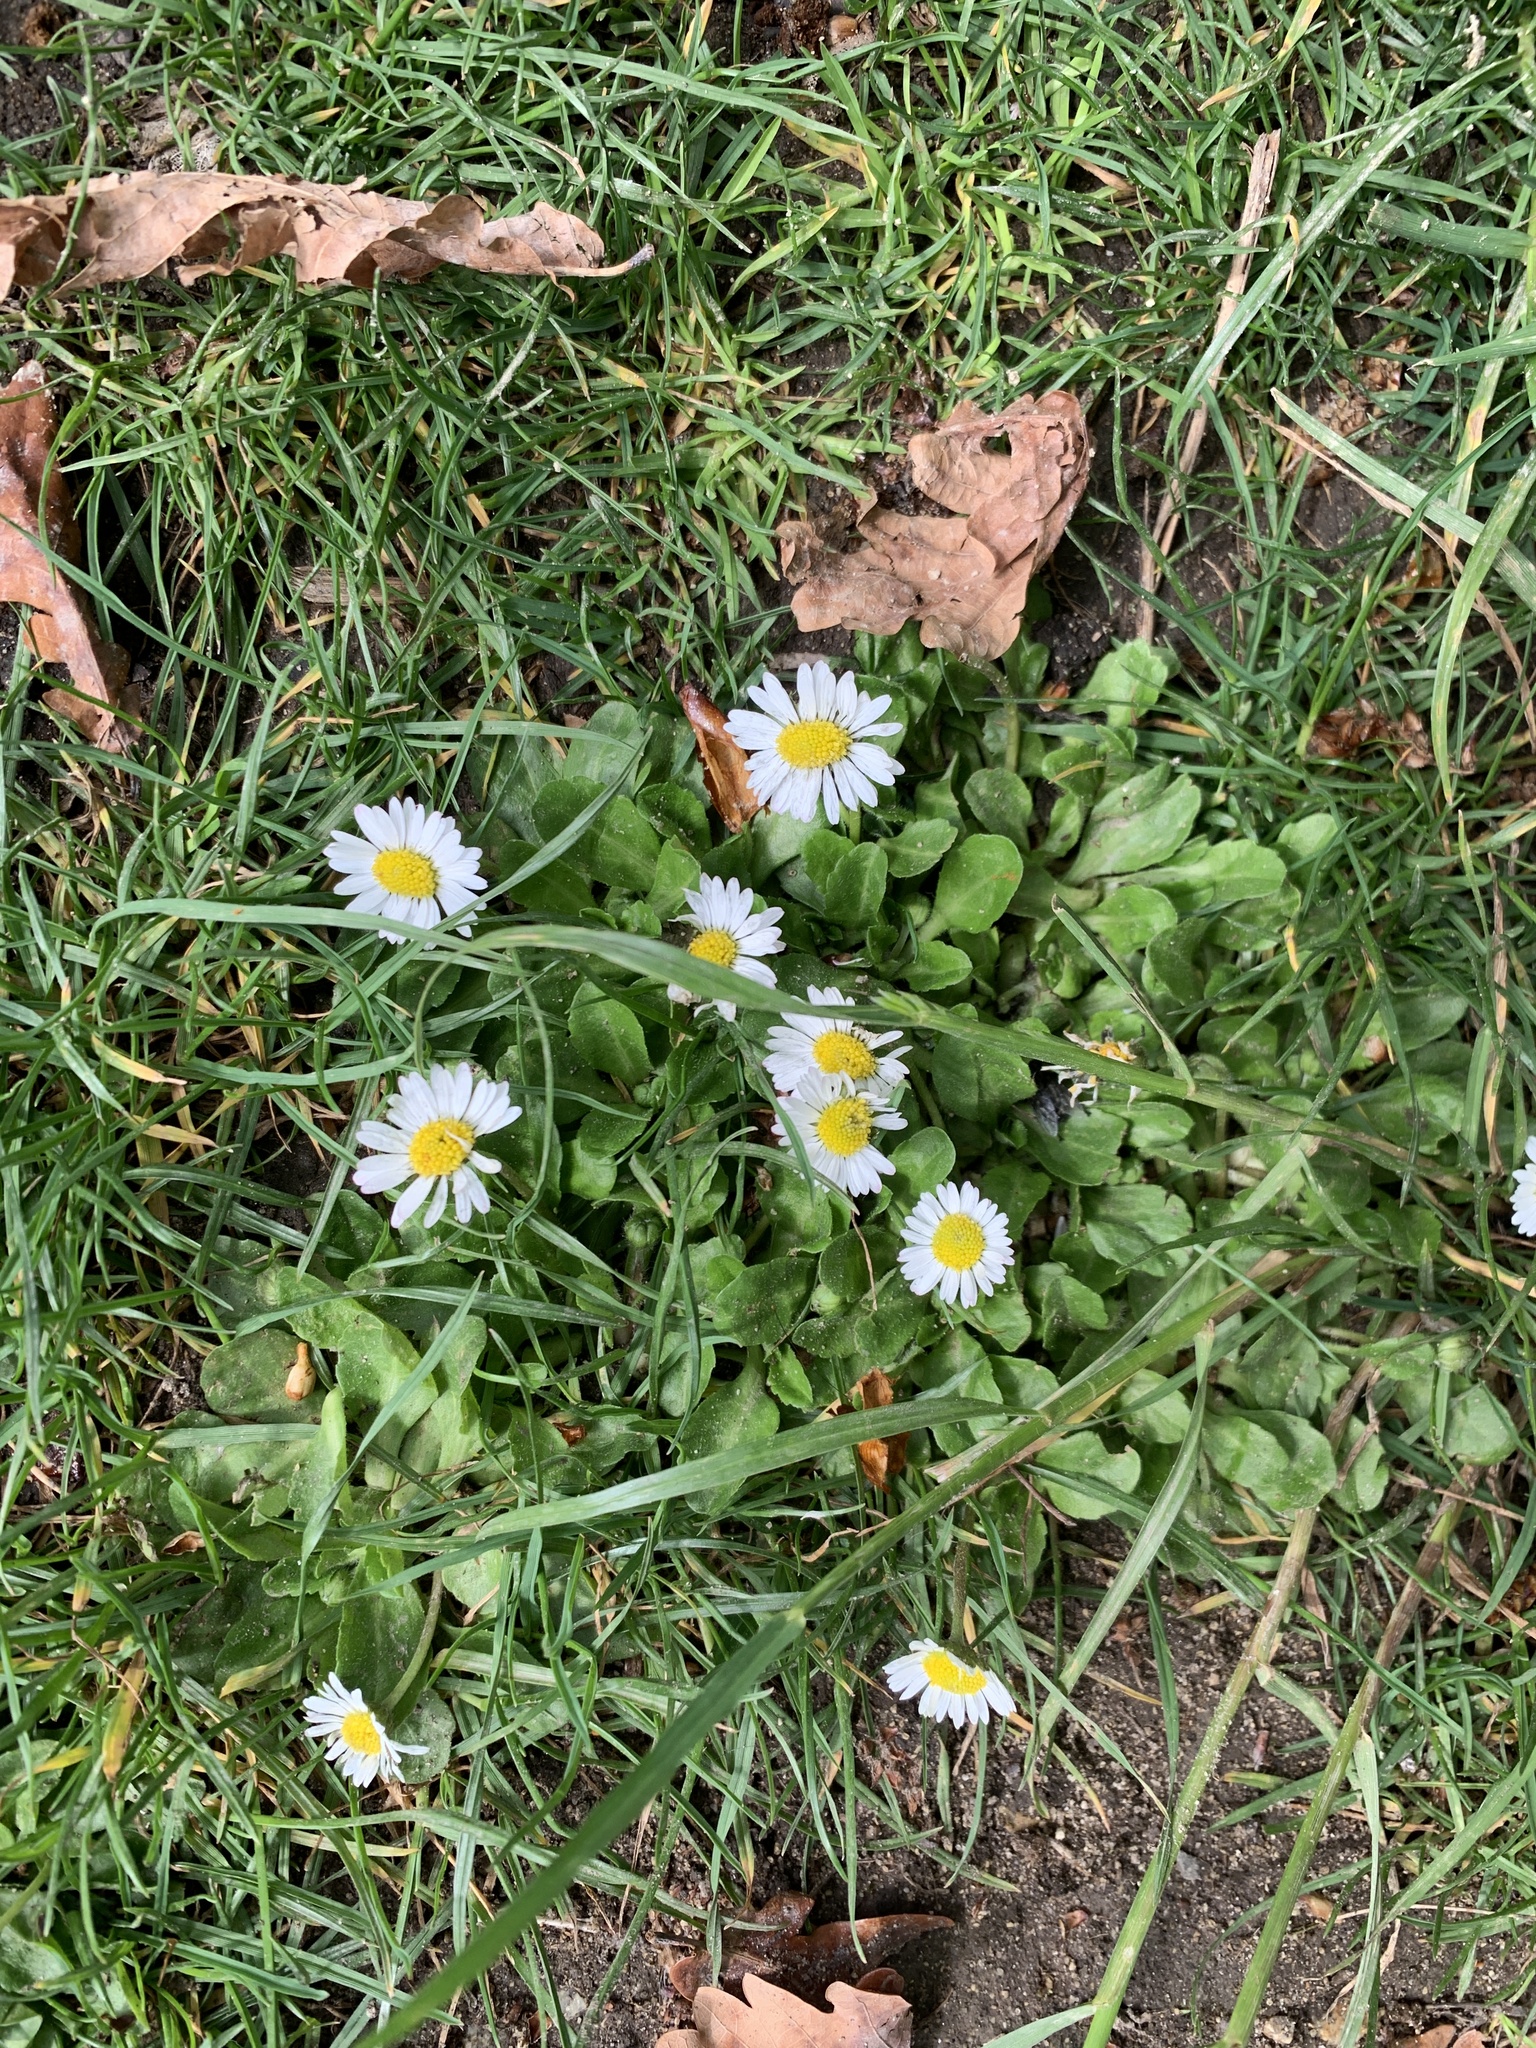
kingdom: Plantae
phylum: Tracheophyta
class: Magnoliopsida
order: Asterales
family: Asteraceae
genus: Bellis
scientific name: Bellis perennis
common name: Lawndaisy
